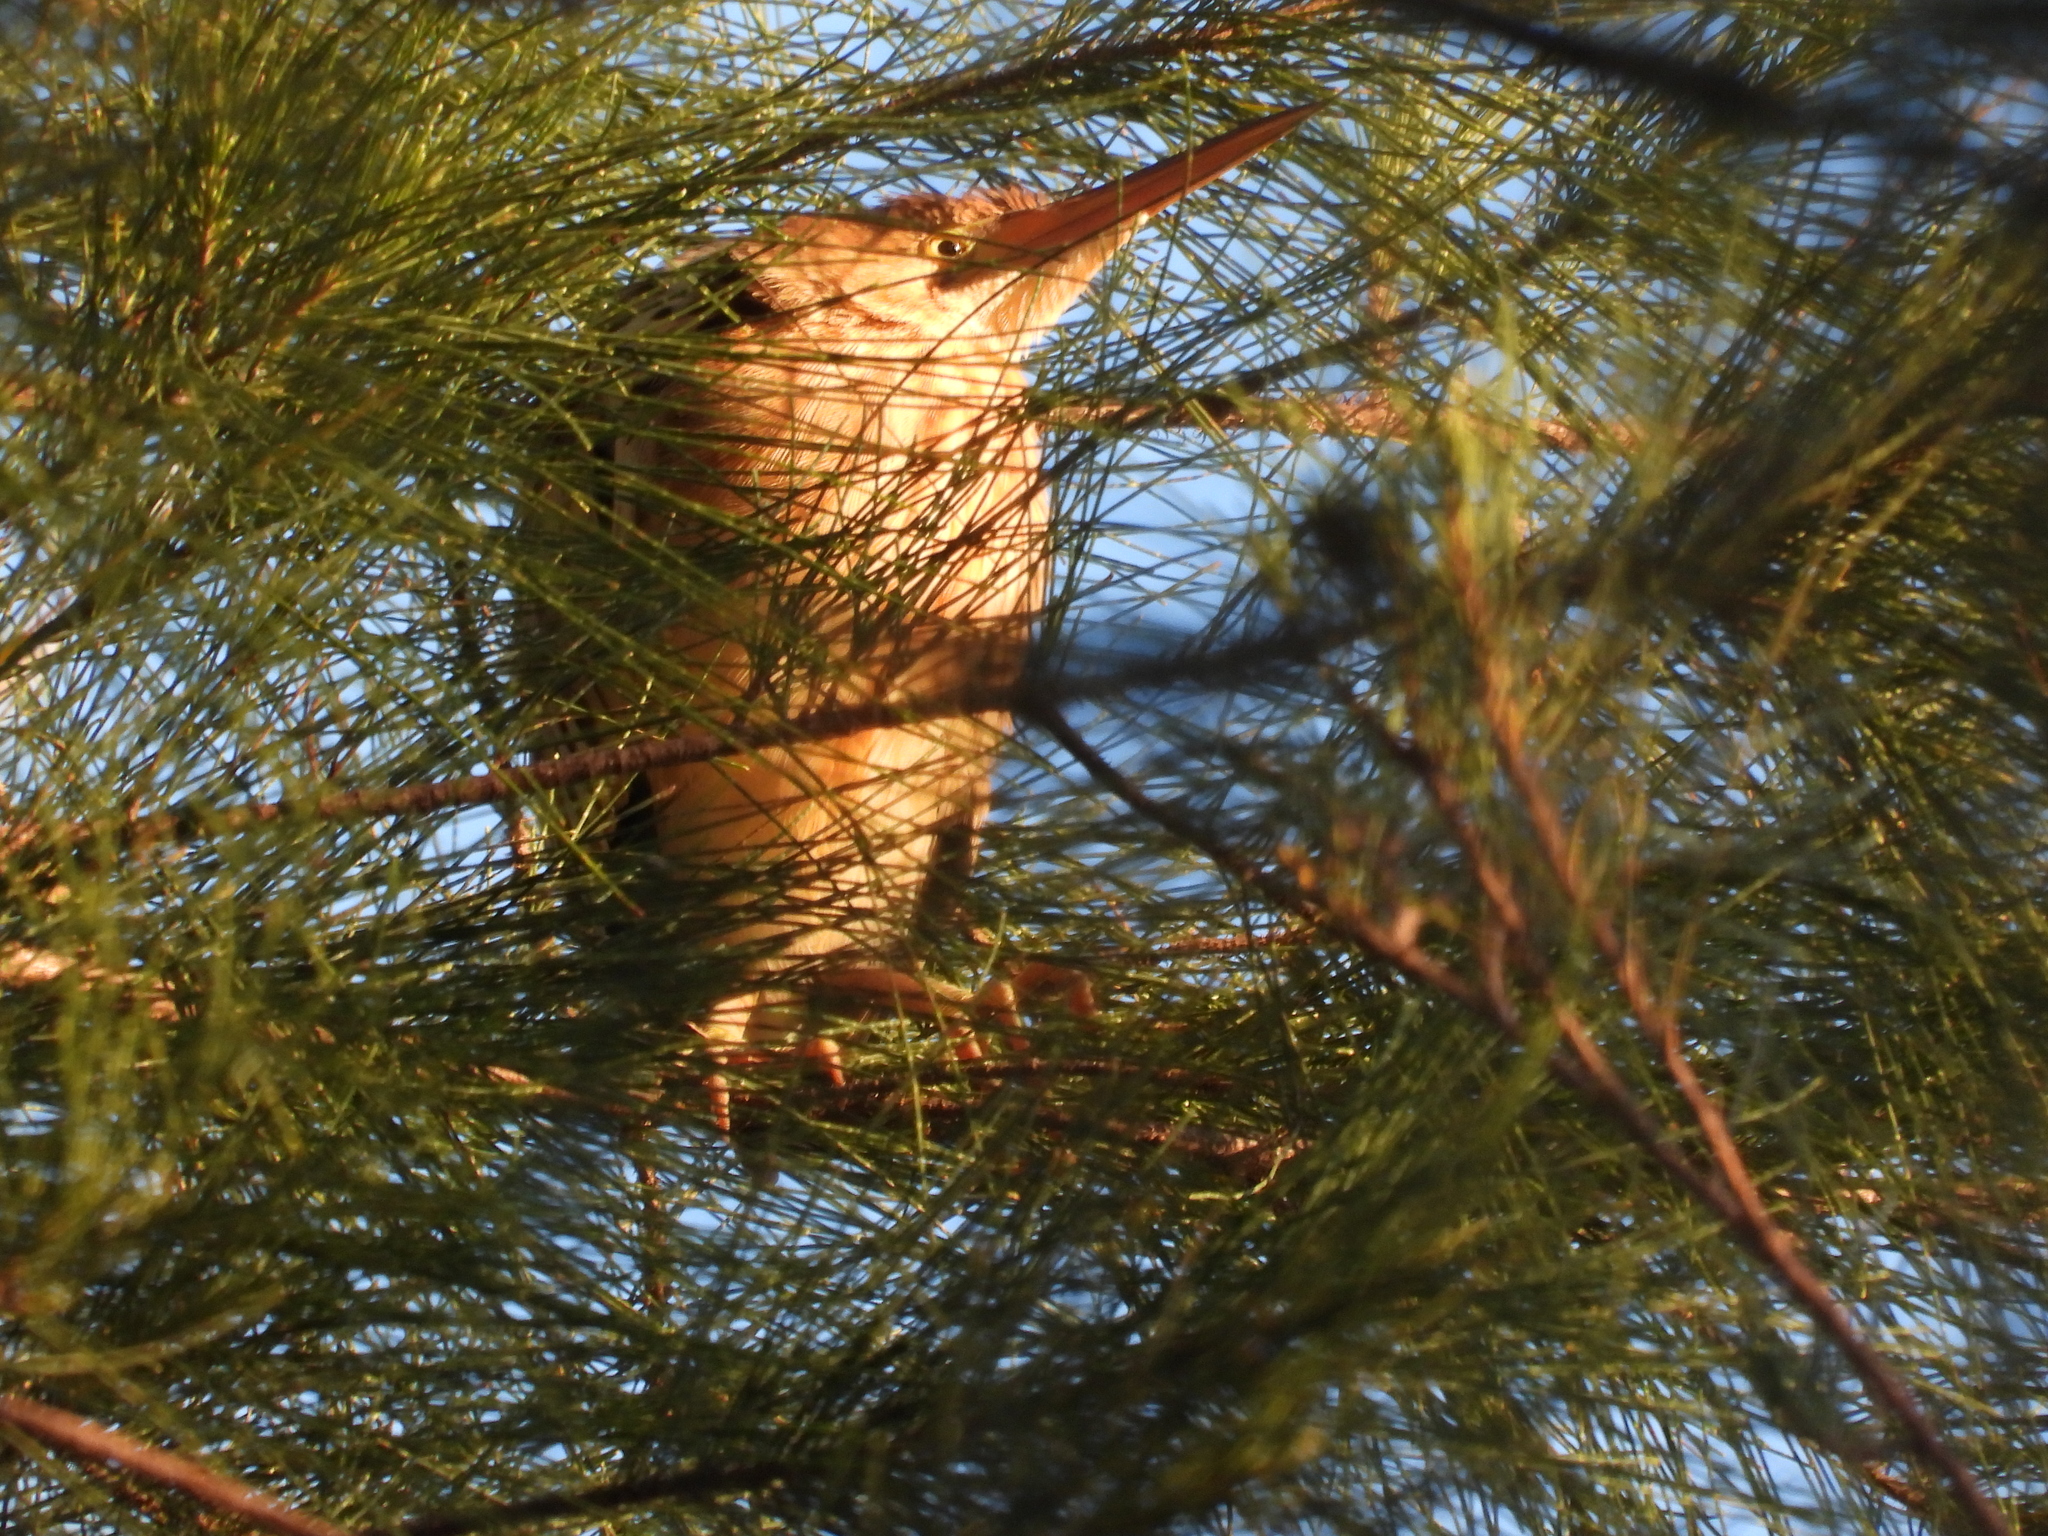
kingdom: Animalia
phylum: Chordata
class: Aves
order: Pelecaniformes
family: Ardeidae
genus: Ixobrychus
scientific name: Ixobrychus sinensis
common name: Yellow bittern
